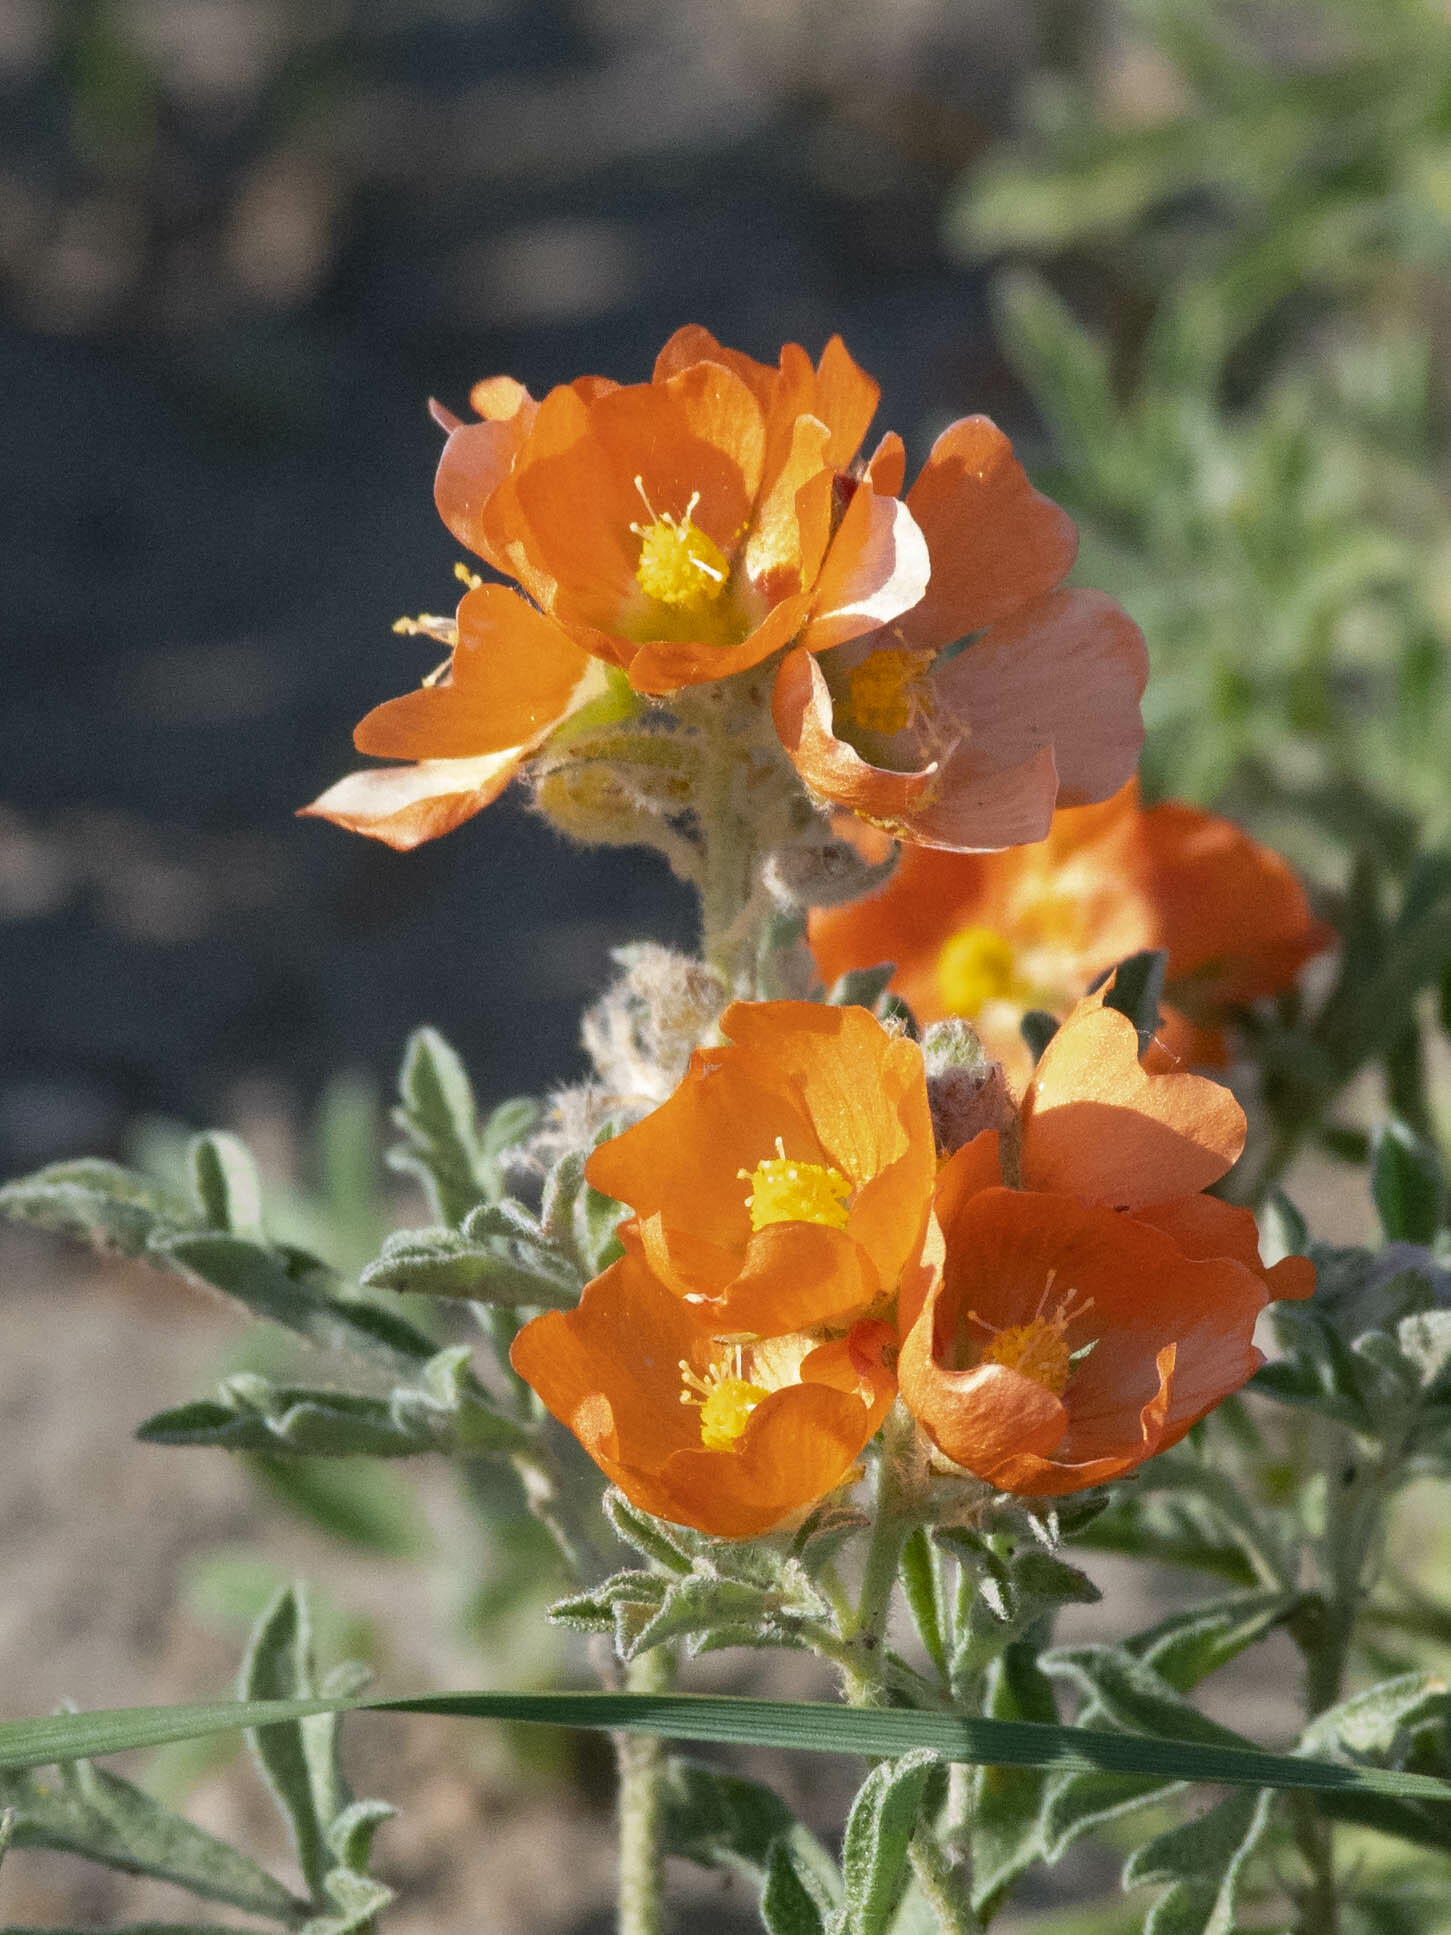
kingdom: Plantae
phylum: Tracheophyta
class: Magnoliopsida
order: Malvales
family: Malvaceae
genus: Sphaeralcea
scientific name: Sphaeralcea coccinea
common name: Moss-rose
